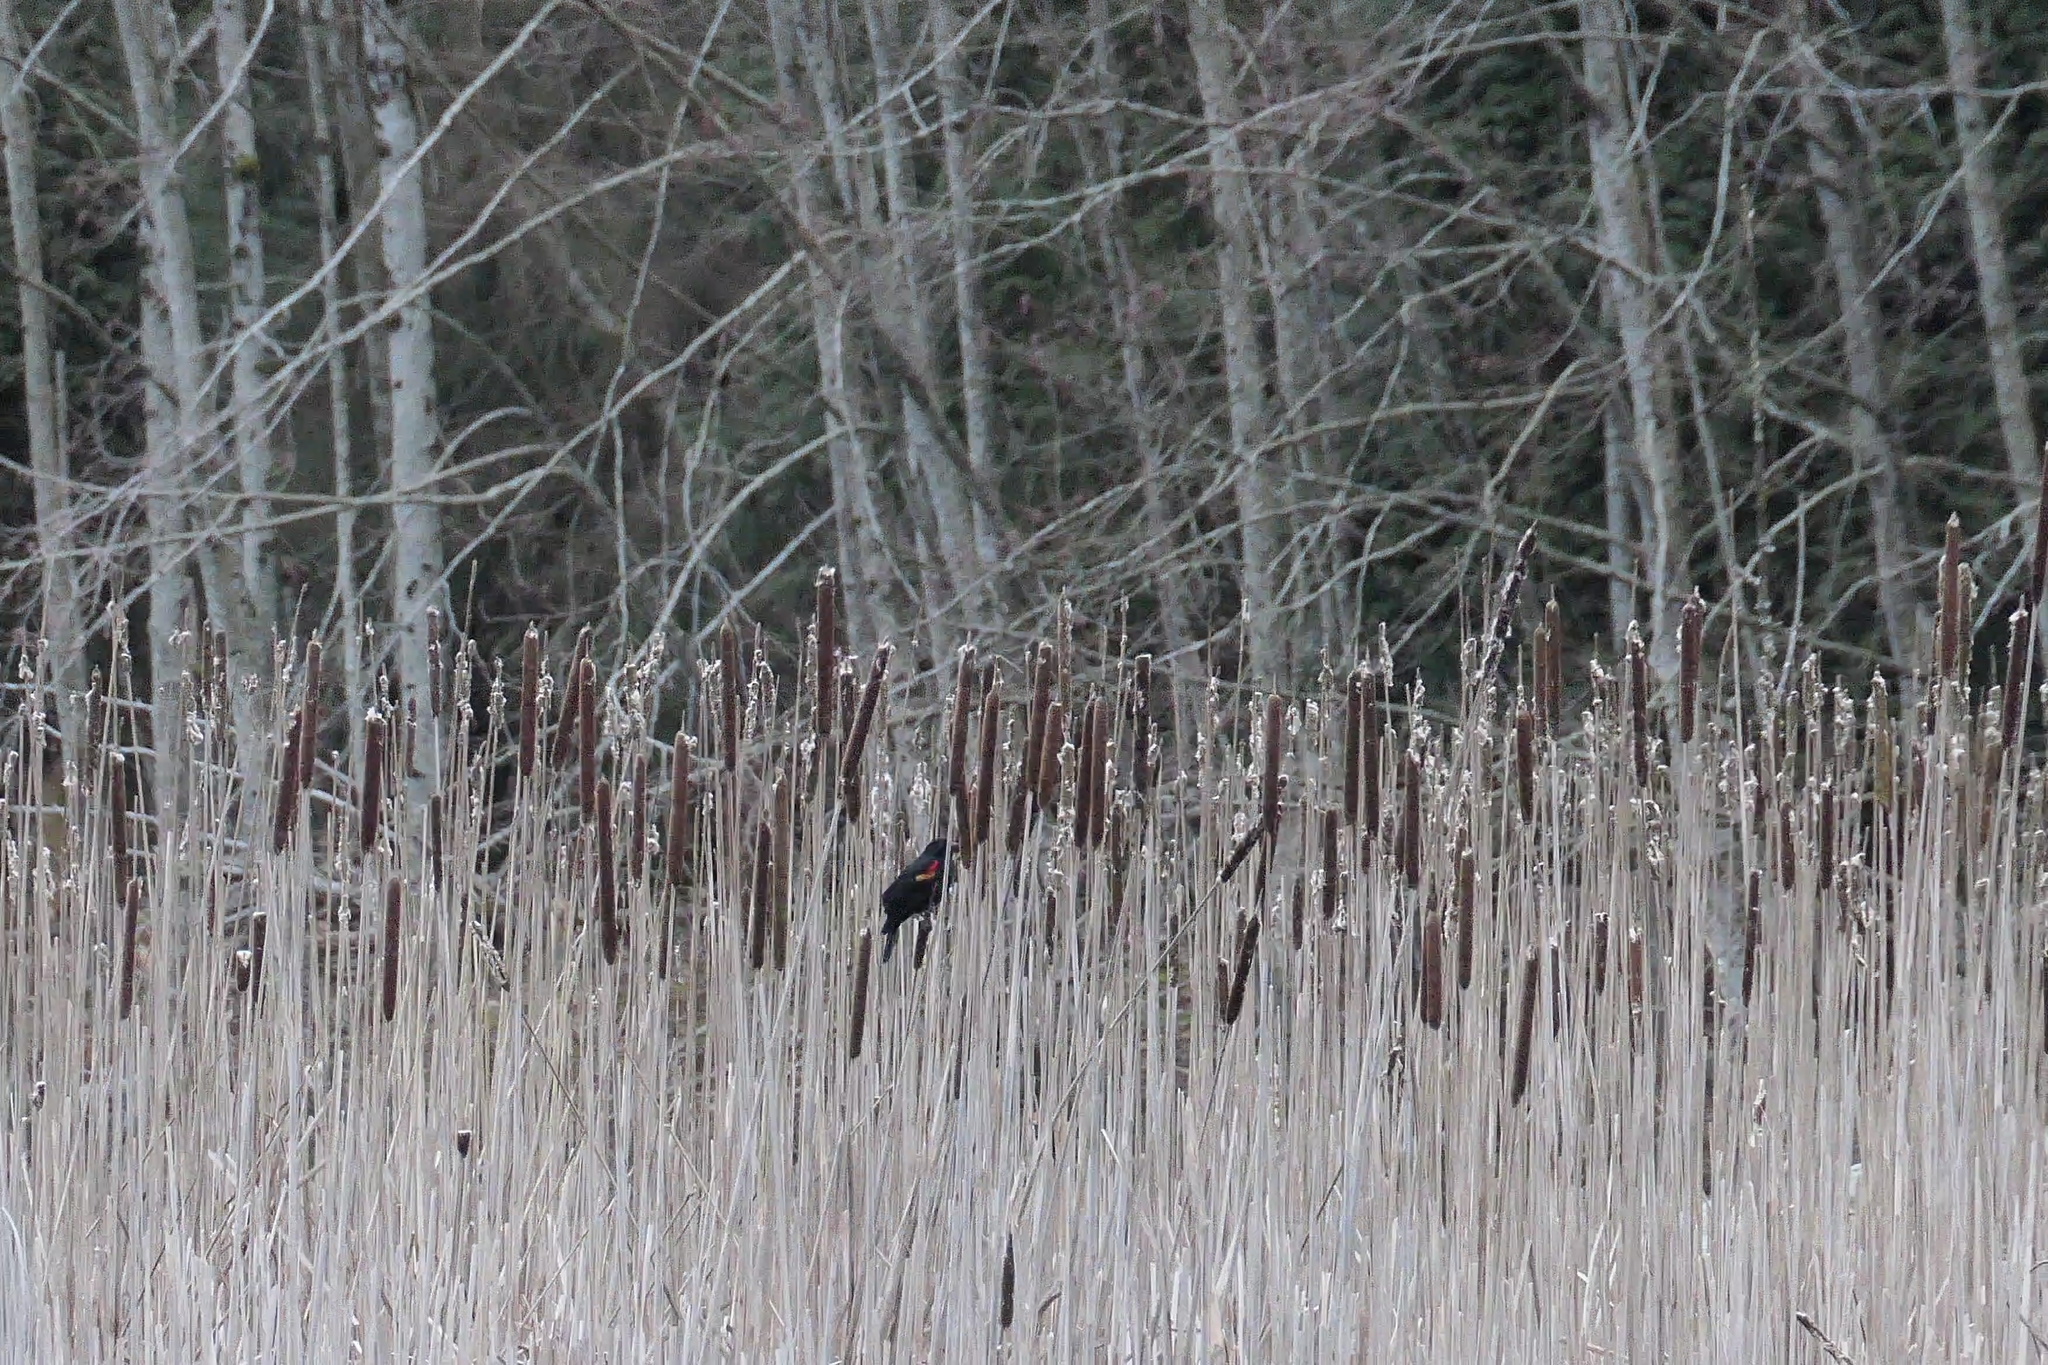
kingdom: Animalia
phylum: Chordata
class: Aves
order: Passeriformes
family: Icteridae
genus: Agelaius
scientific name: Agelaius phoeniceus
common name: Red-winged blackbird
